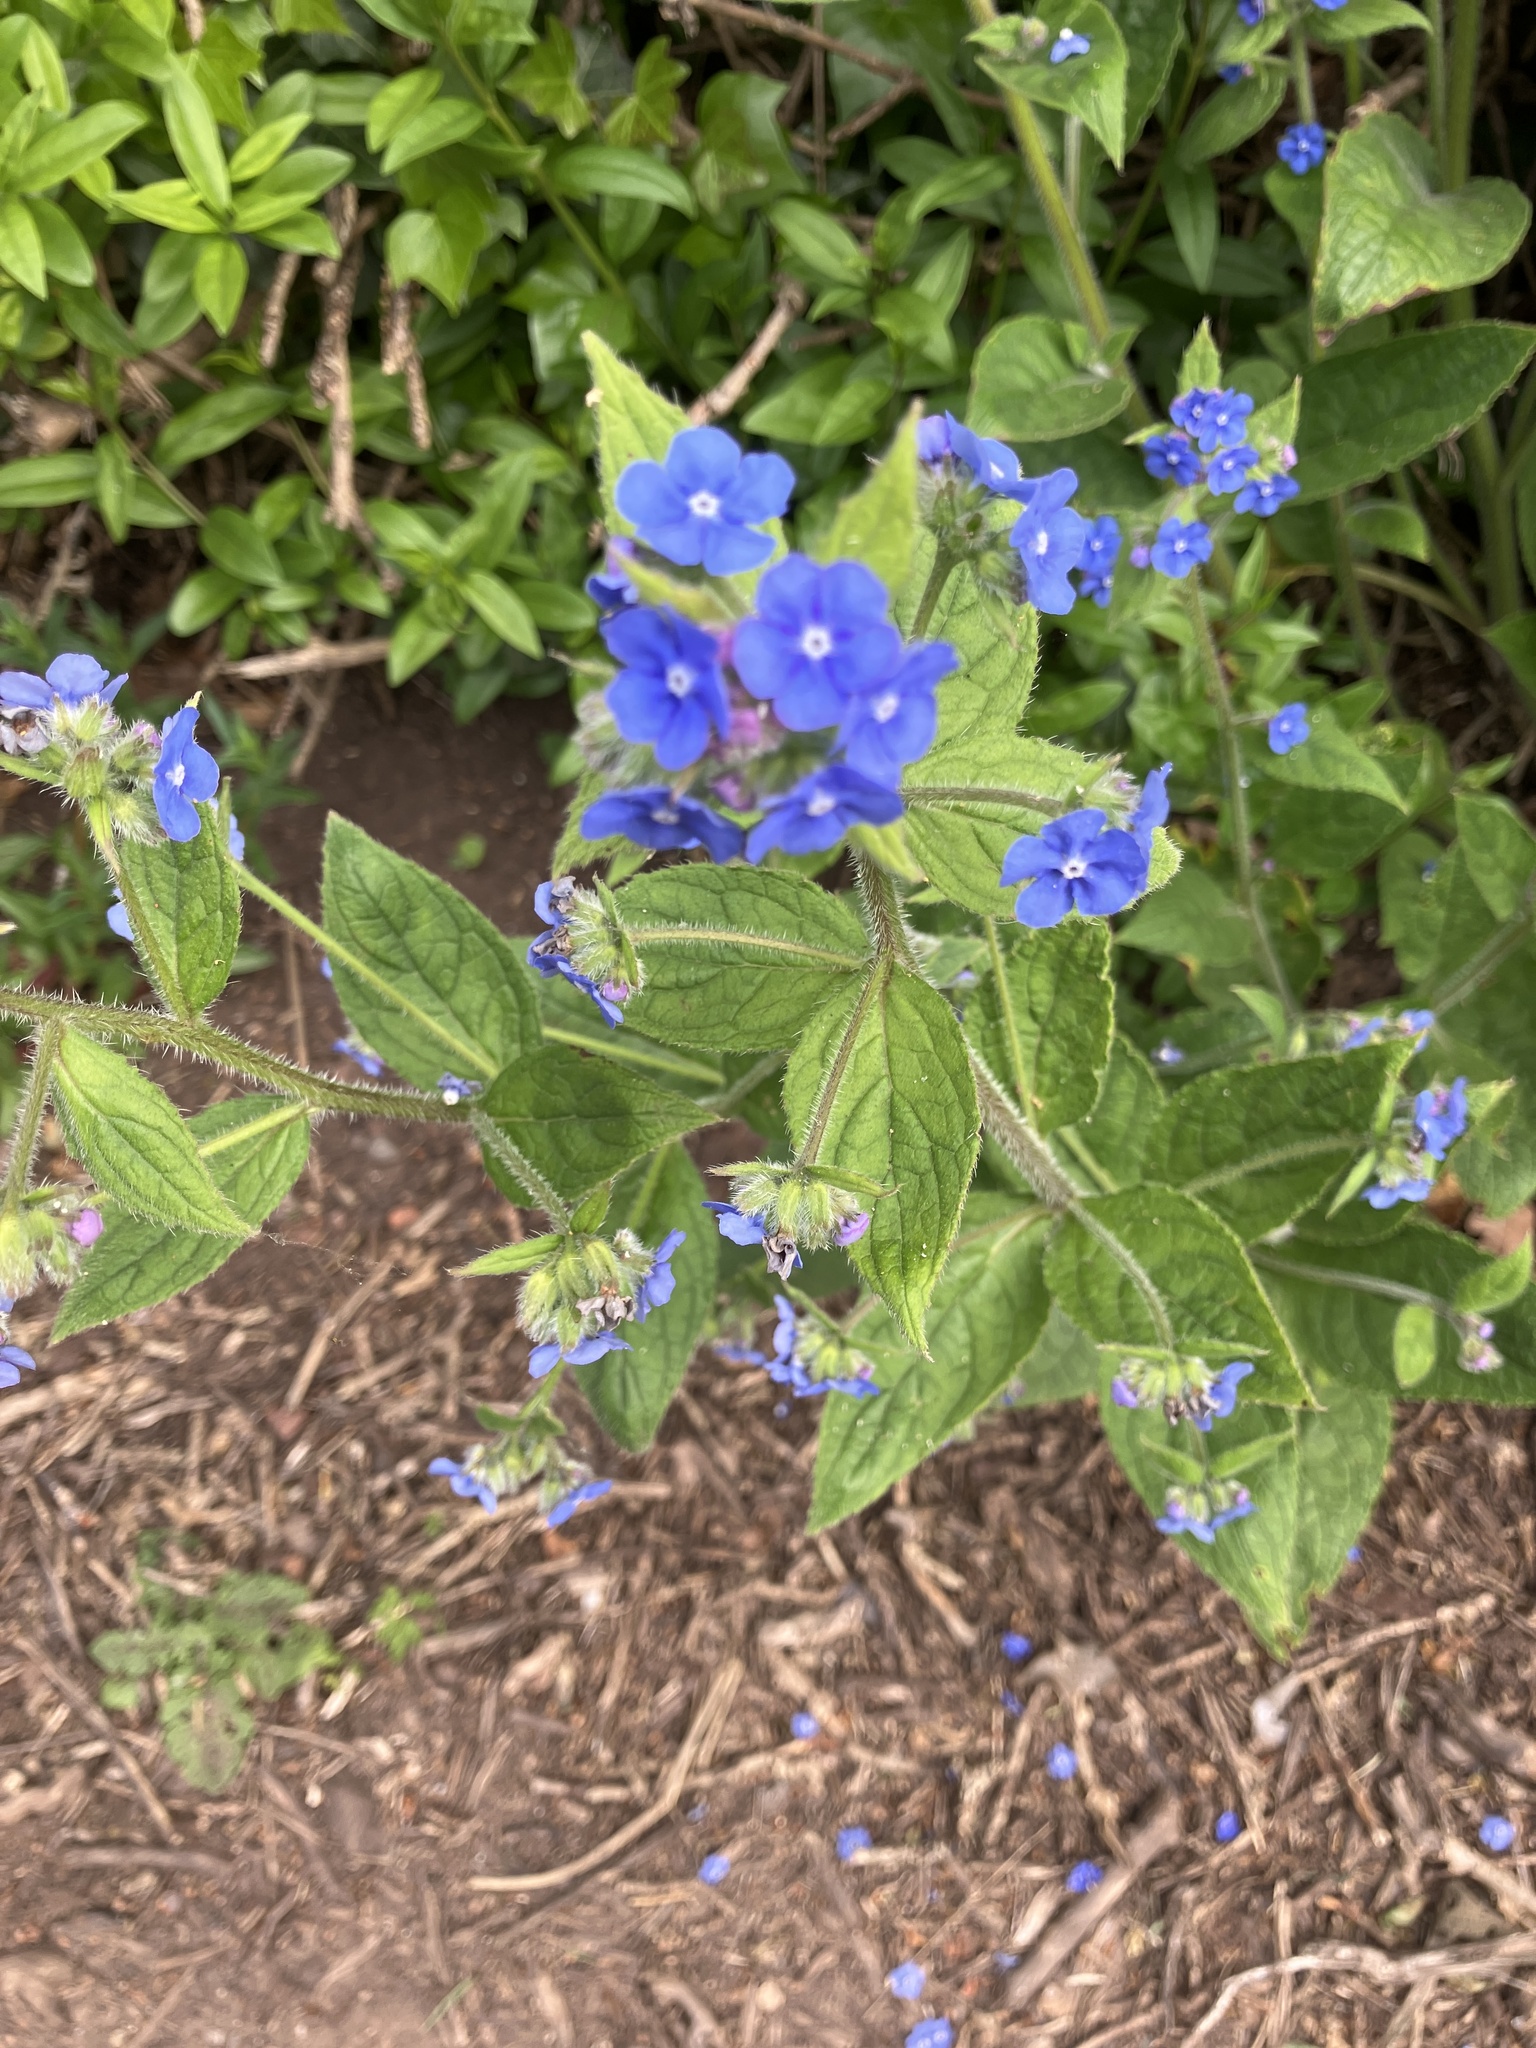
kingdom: Plantae
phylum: Tracheophyta
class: Magnoliopsida
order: Boraginales
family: Boraginaceae
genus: Pentaglottis
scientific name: Pentaglottis sempervirens
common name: Green alkanet
